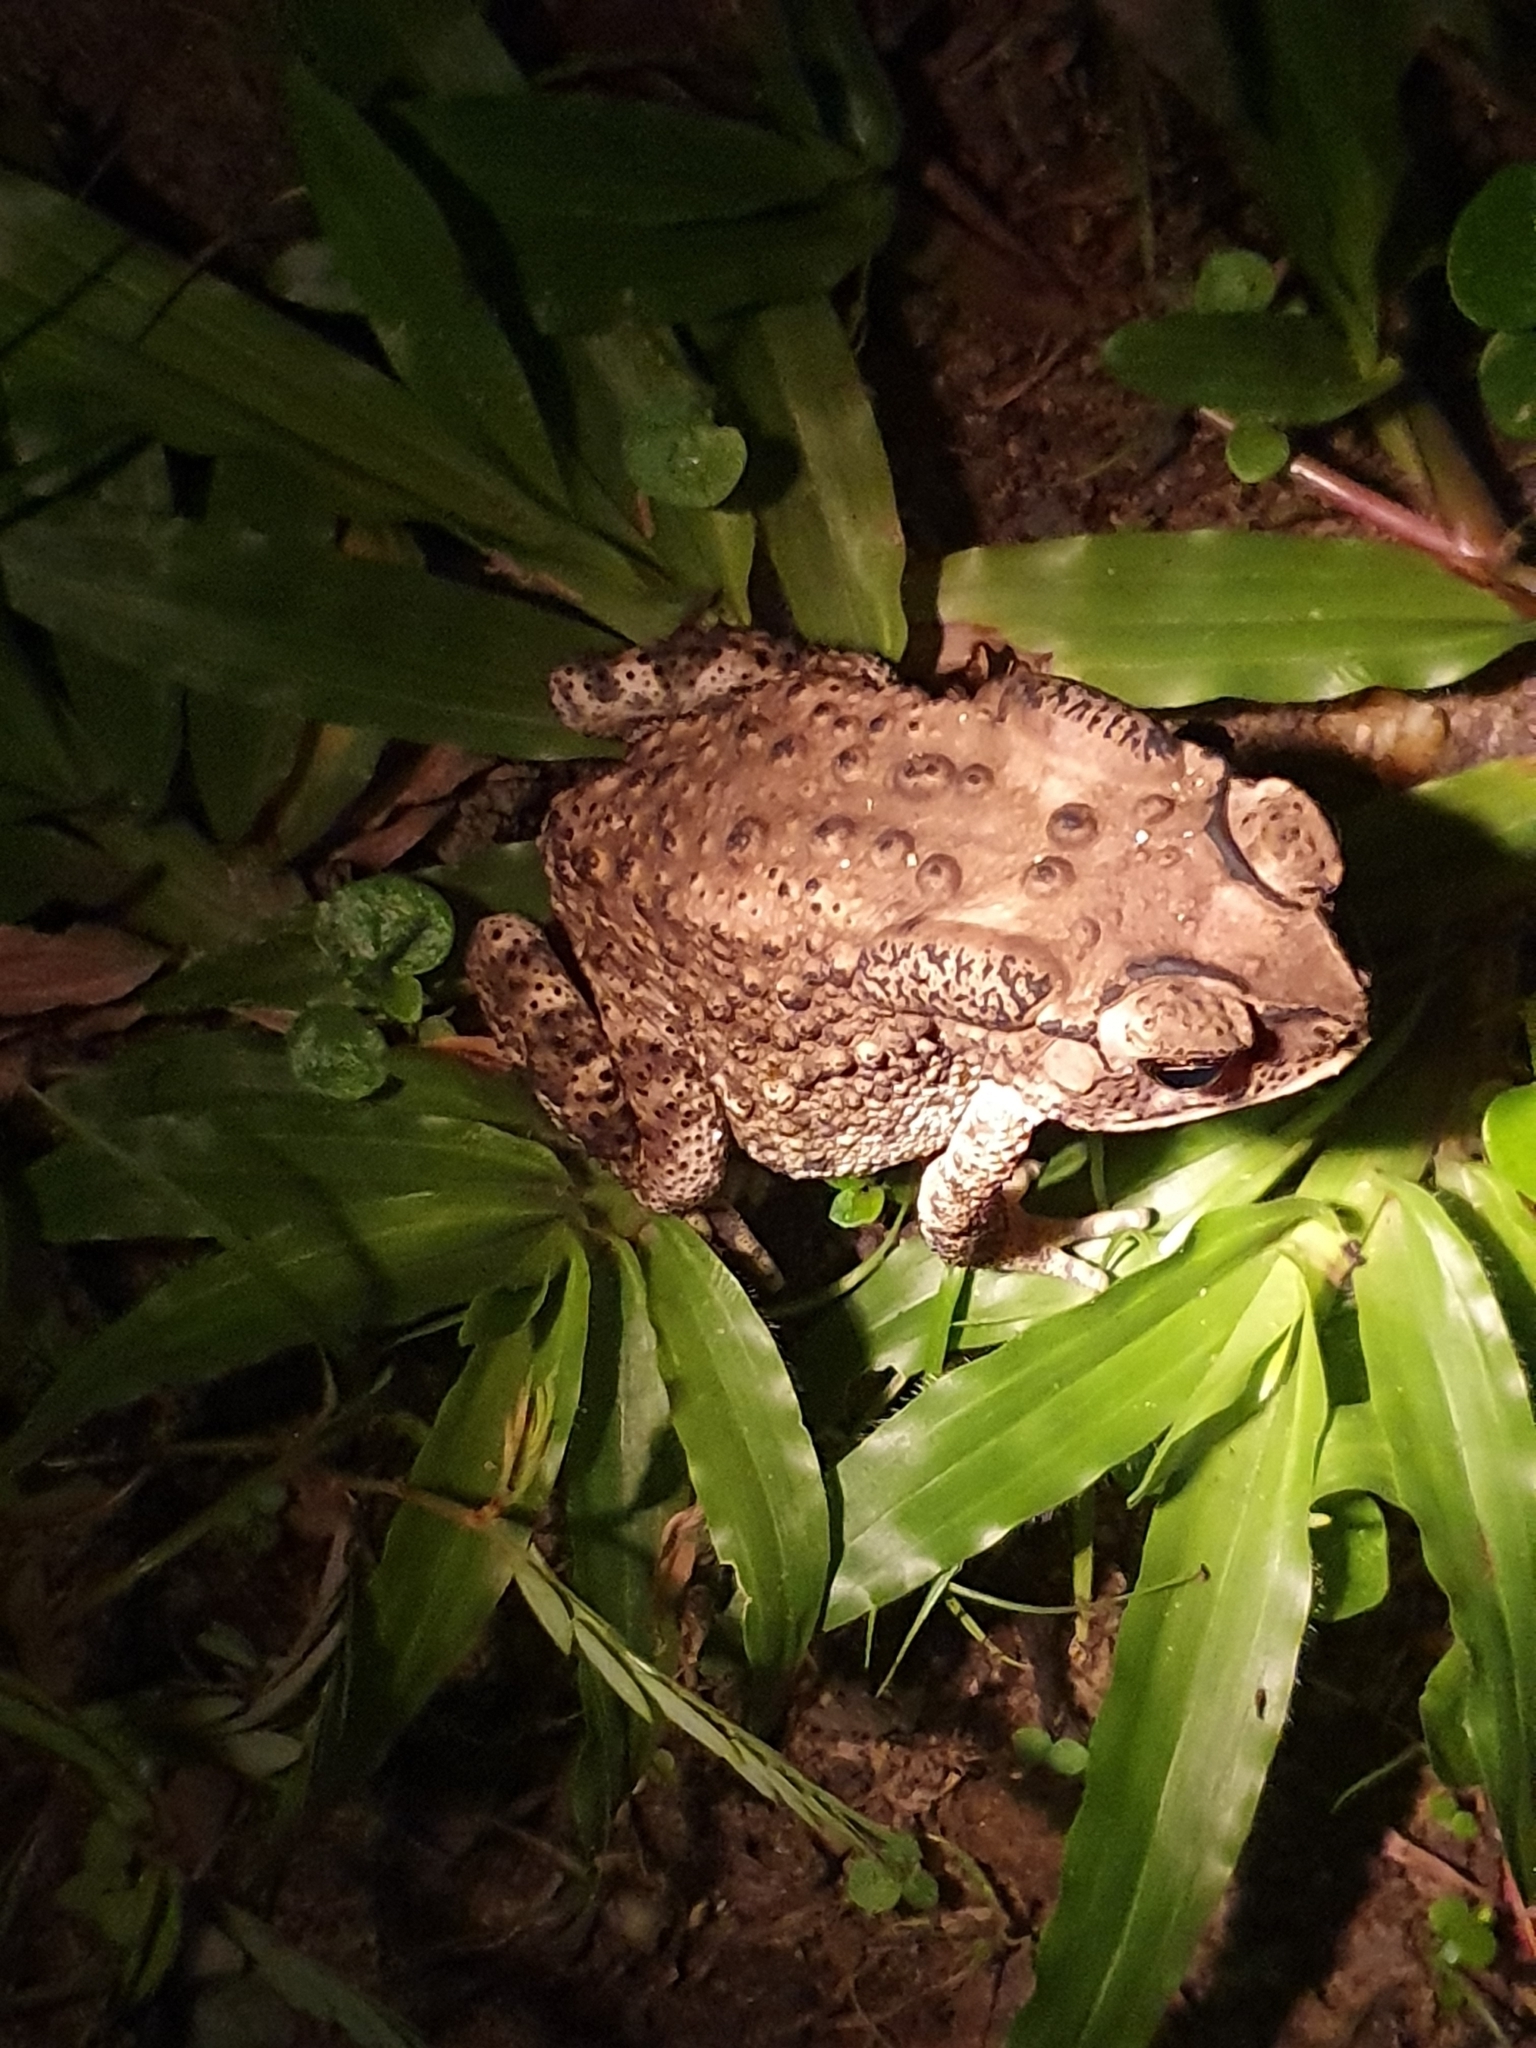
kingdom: Animalia
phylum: Chordata
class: Amphibia
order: Anura
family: Bufonidae
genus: Duttaphrynus
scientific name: Duttaphrynus melanostictus
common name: Common sunda toad
